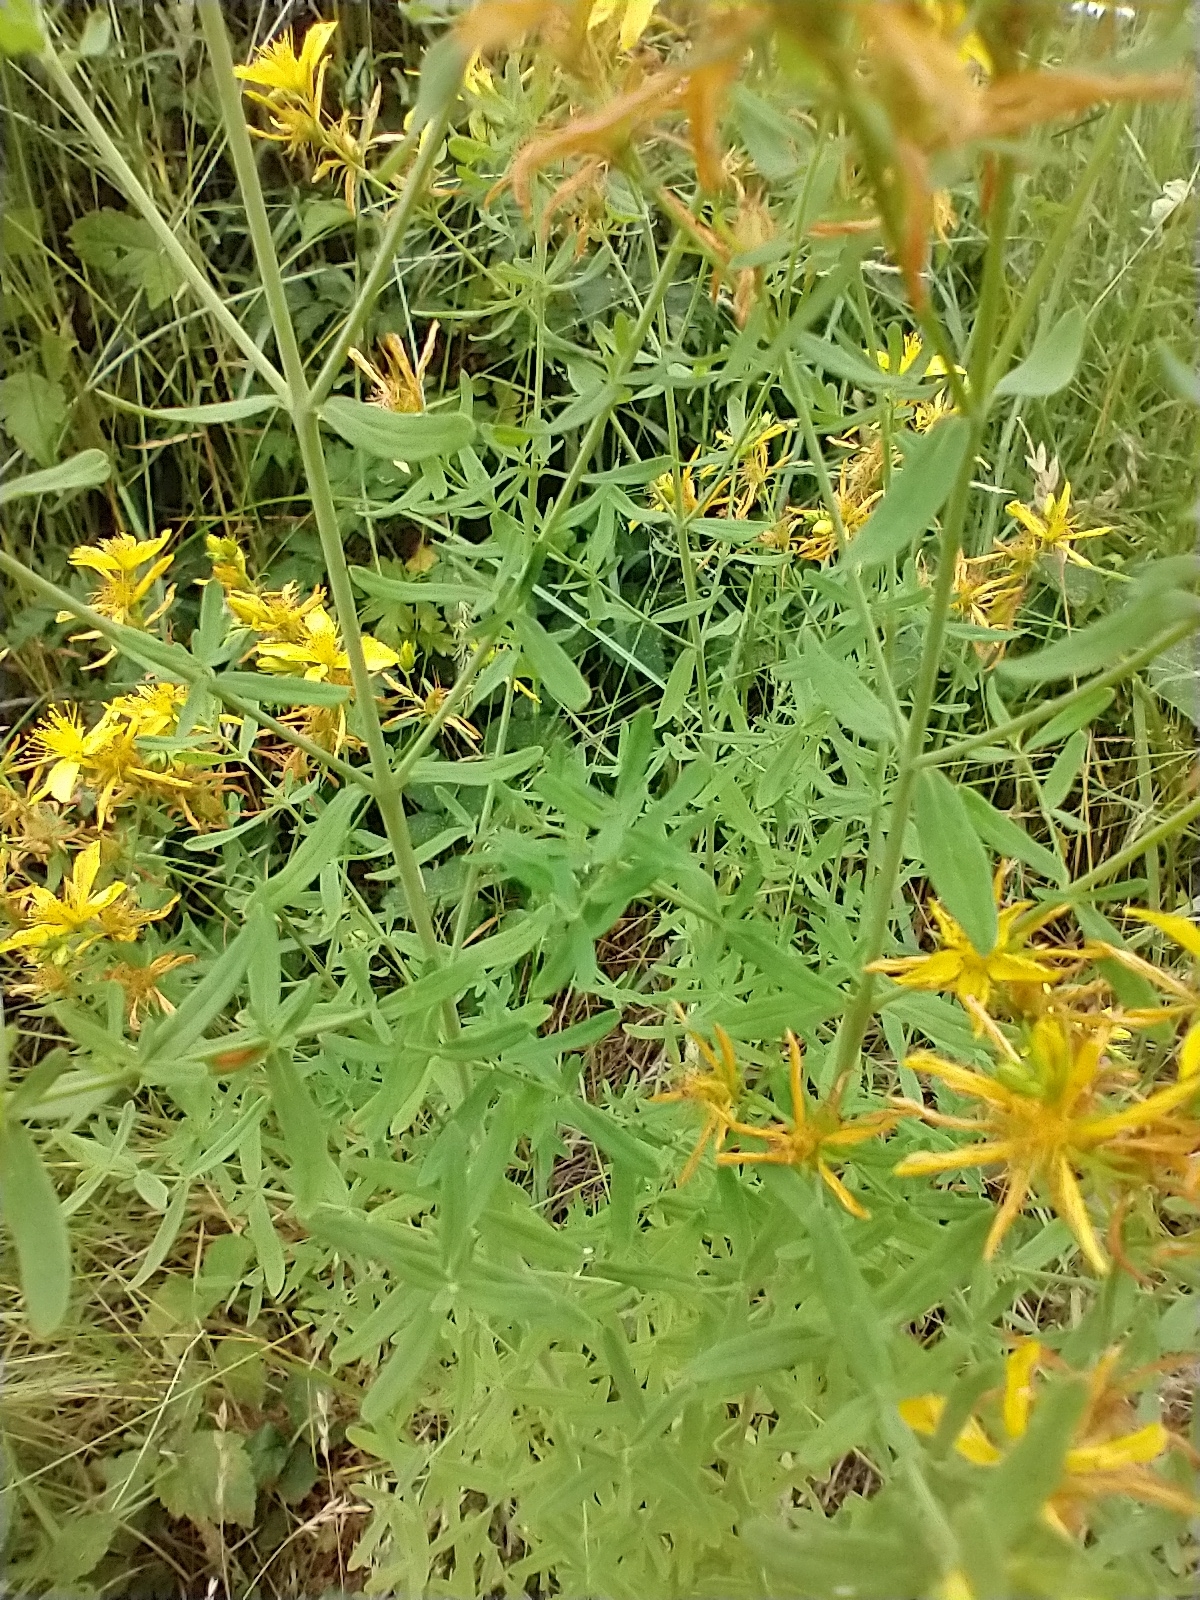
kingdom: Plantae
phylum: Tracheophyta
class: Magnoliopsida
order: Malpighiales
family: Hypericaceae
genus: Hypericum
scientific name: Hypericum perforatum
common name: Common st. johnswort
